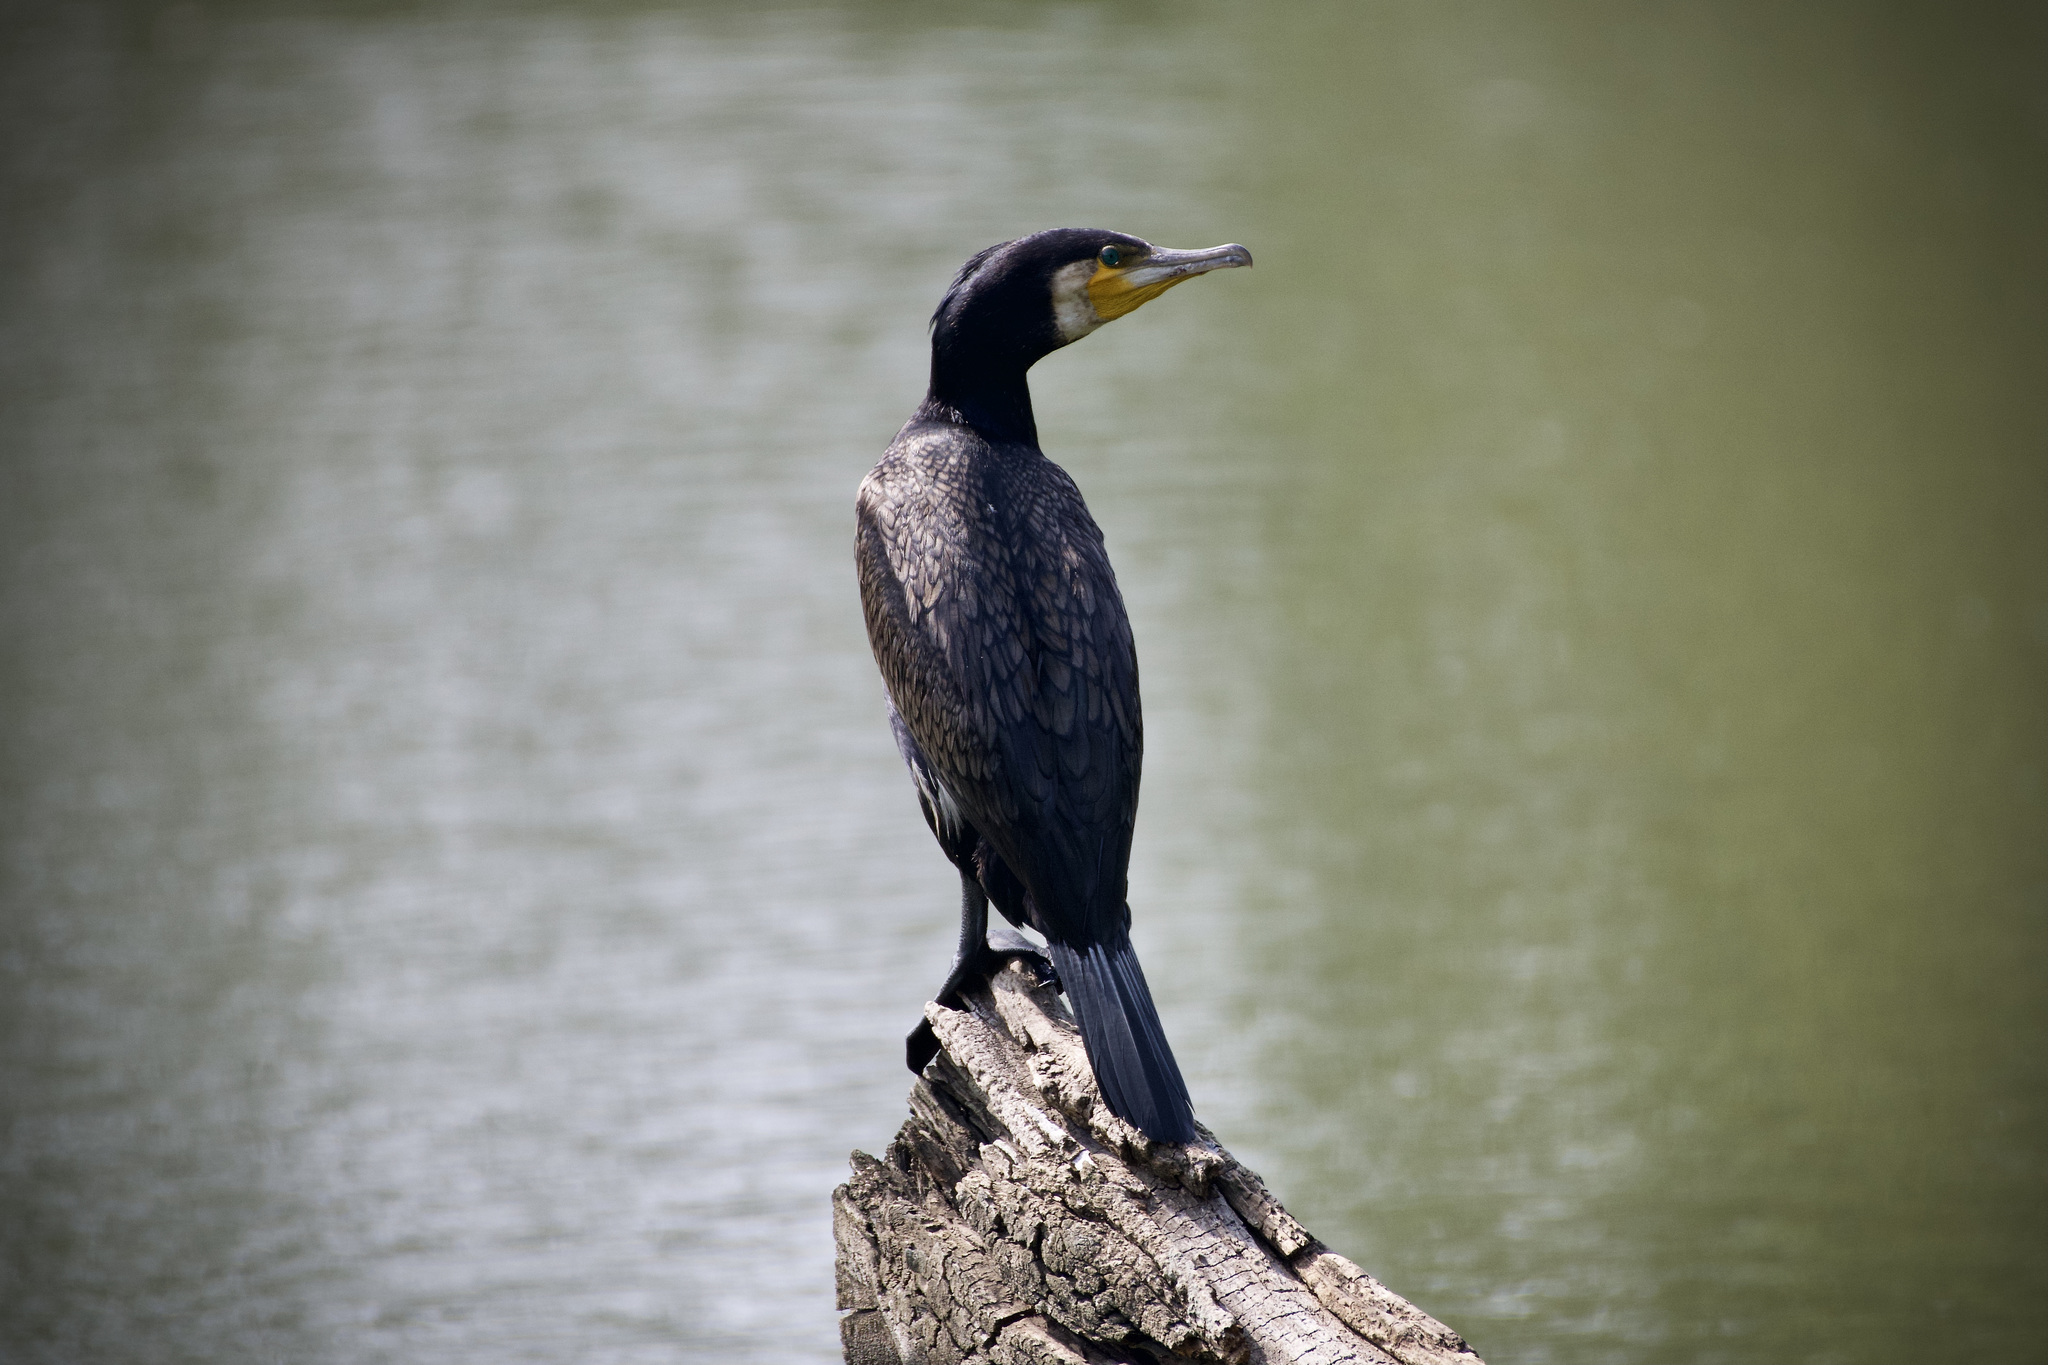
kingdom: Animalia
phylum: Chordata
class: Aves
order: Suliformes
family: Phalacrocoracidae
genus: Phalacrocorax
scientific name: Phalacrocorax carbo
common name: Great cormorant
